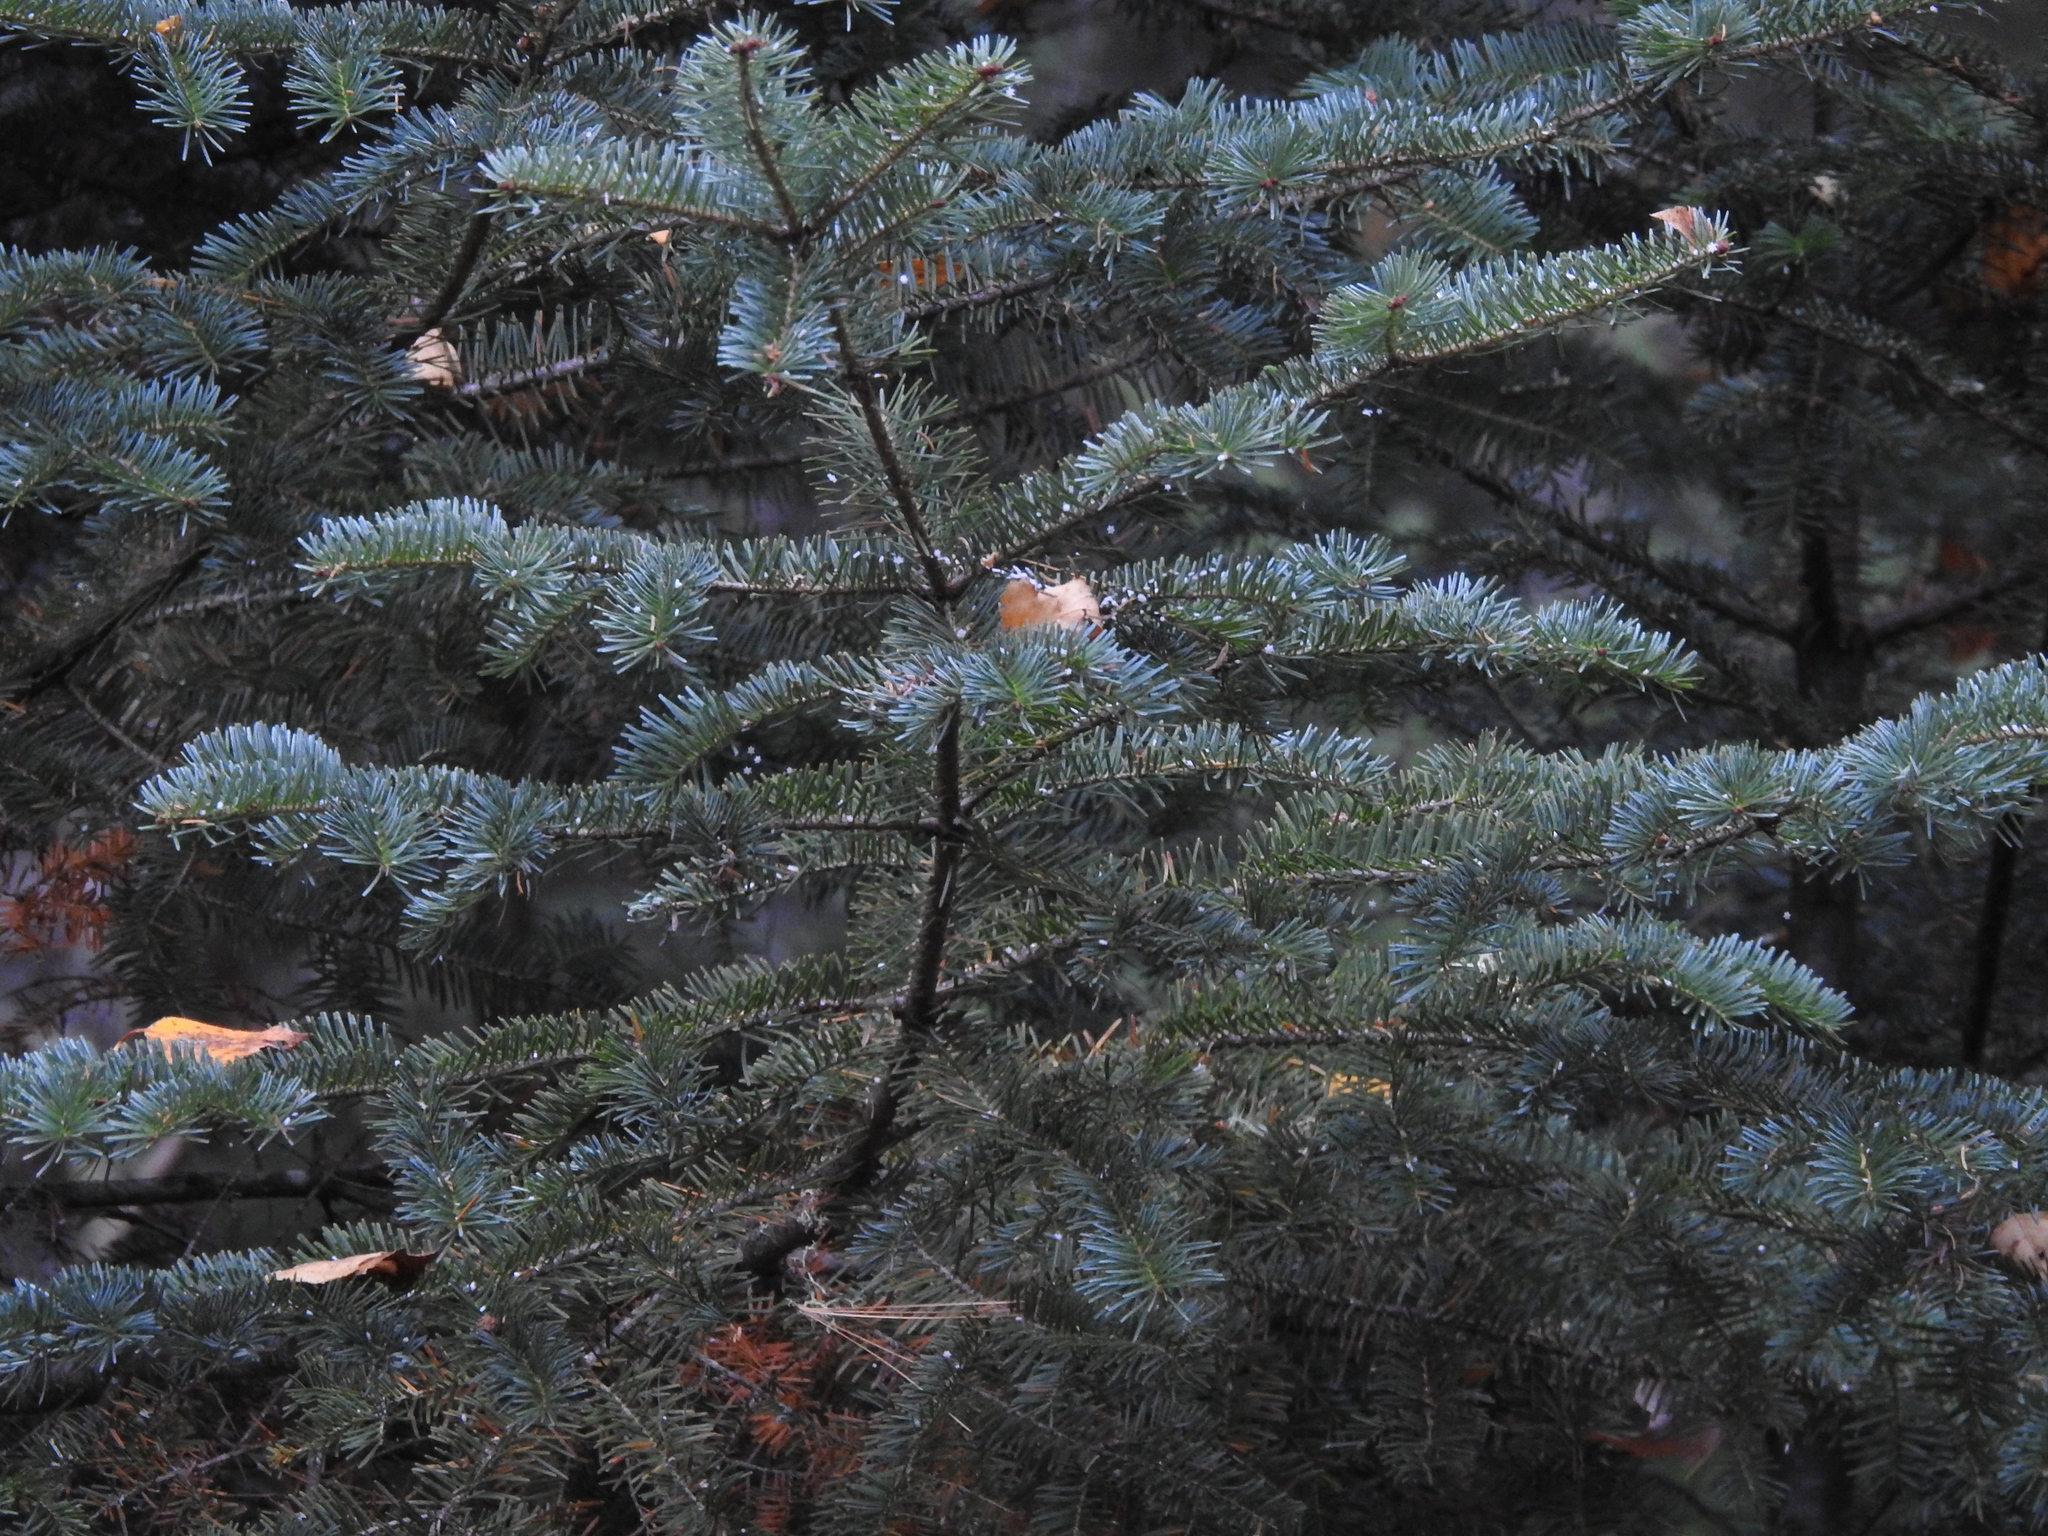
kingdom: Plantae
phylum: Tracheophyta
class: Pinopsida
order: Pinales
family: Pinaceae
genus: Abies
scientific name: Abies balsamea
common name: Balsam fir
